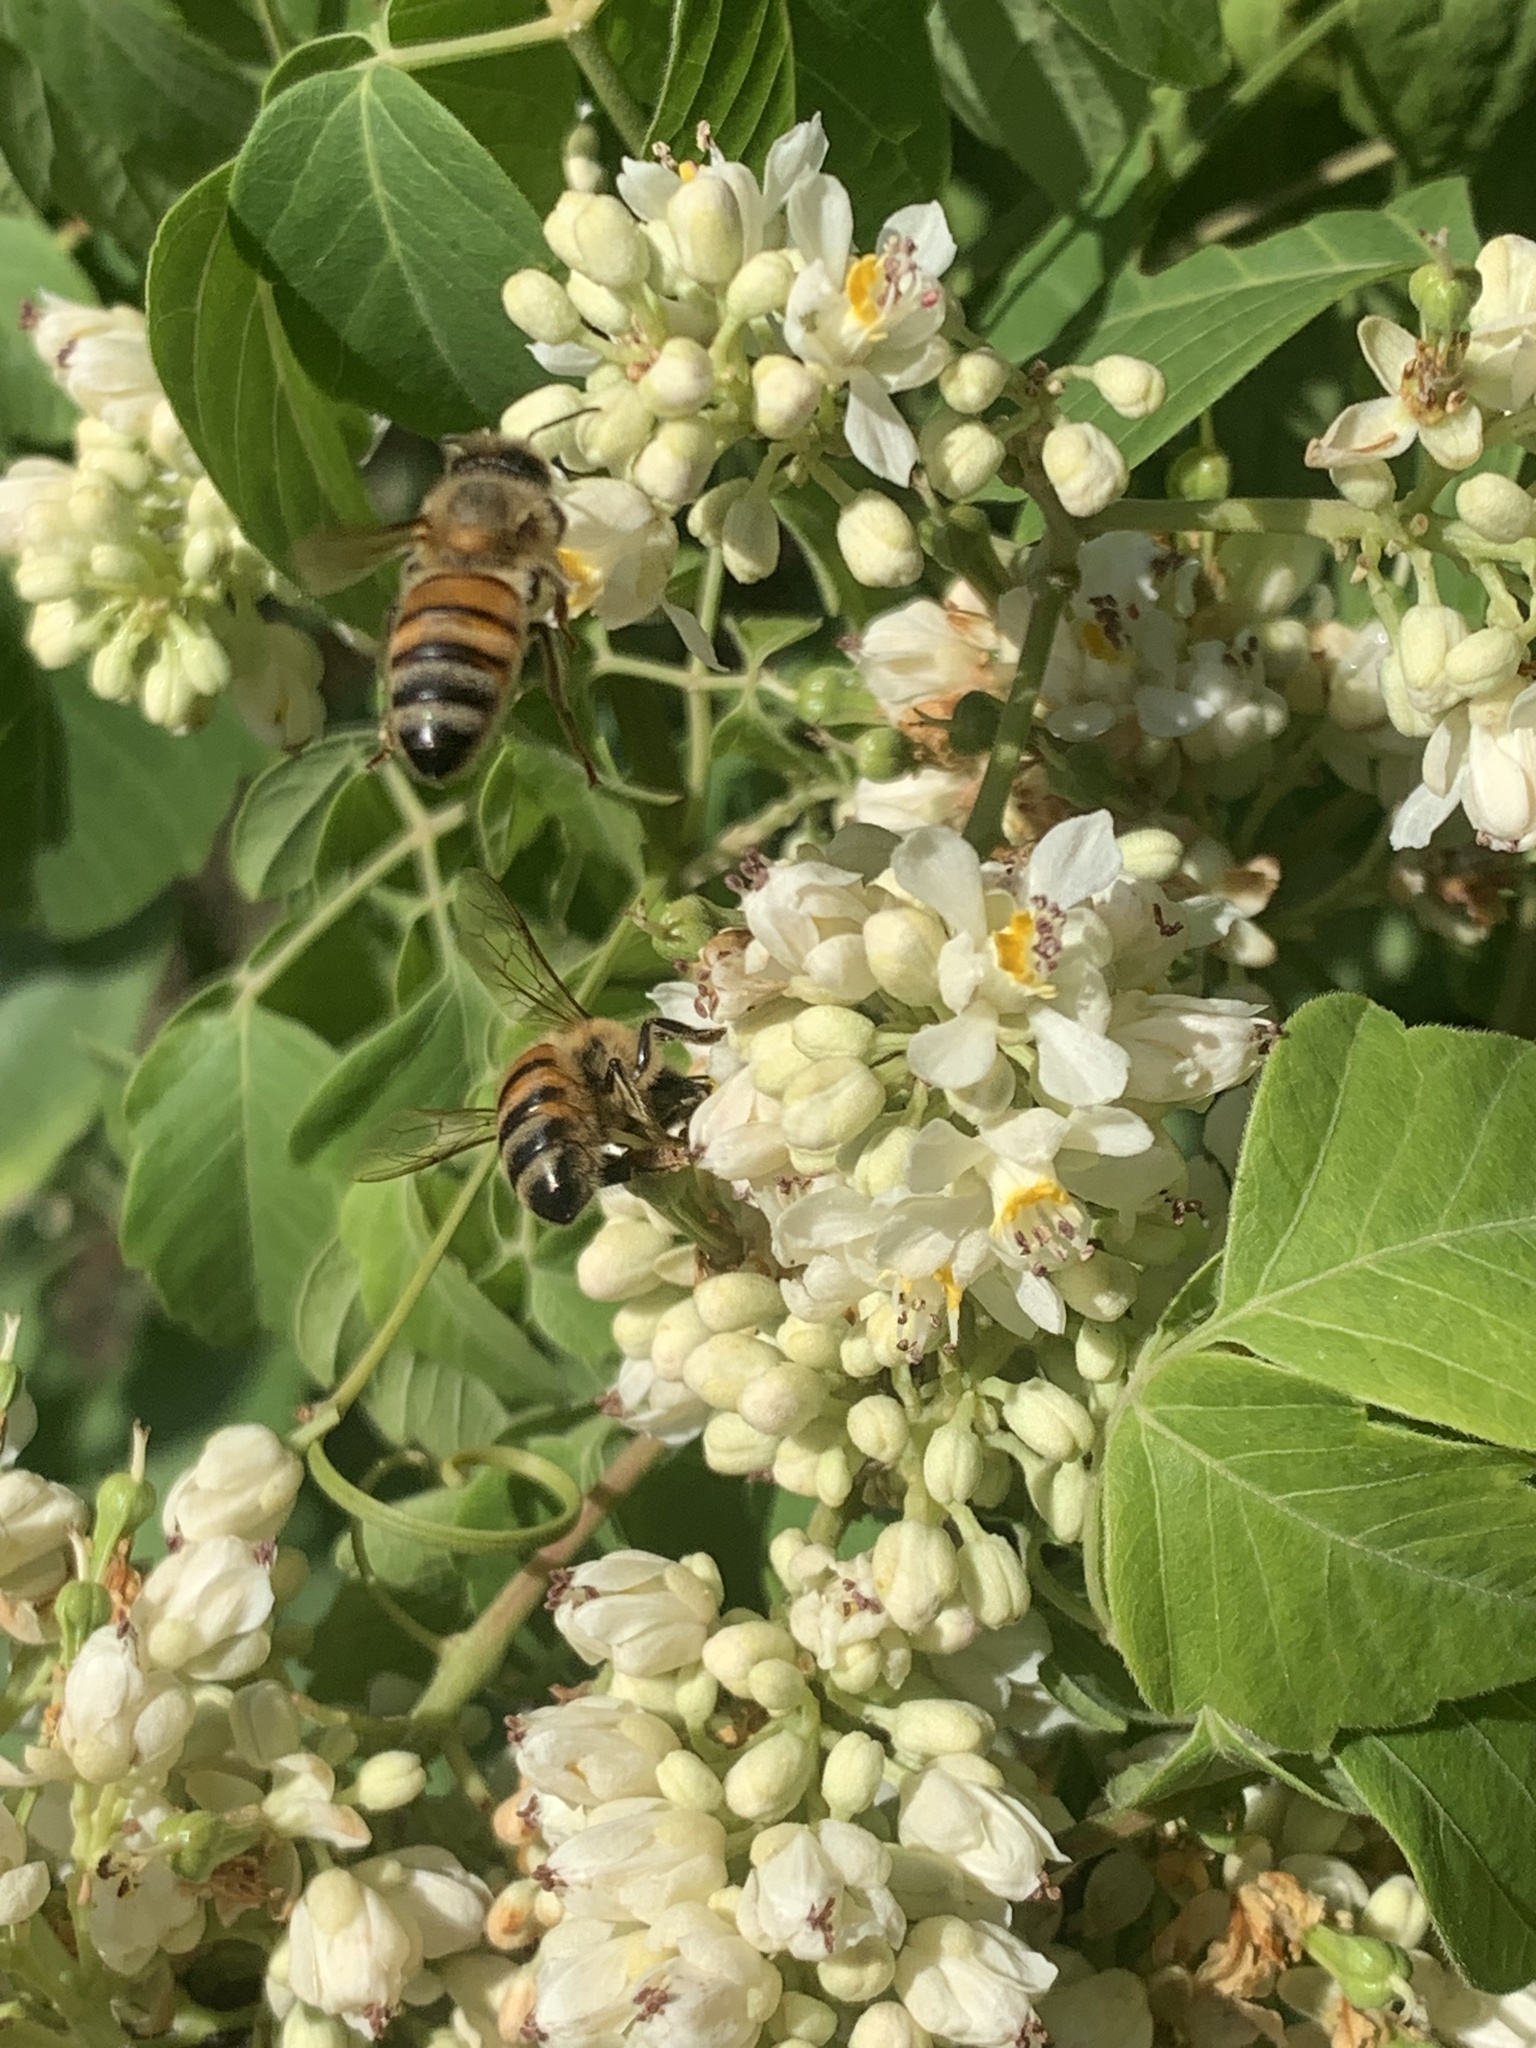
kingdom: Animalia
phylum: Arthropoda
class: Insecta
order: Hymenoptera
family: Apidae
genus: Apis
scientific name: Apis mellifera
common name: Honey bee
